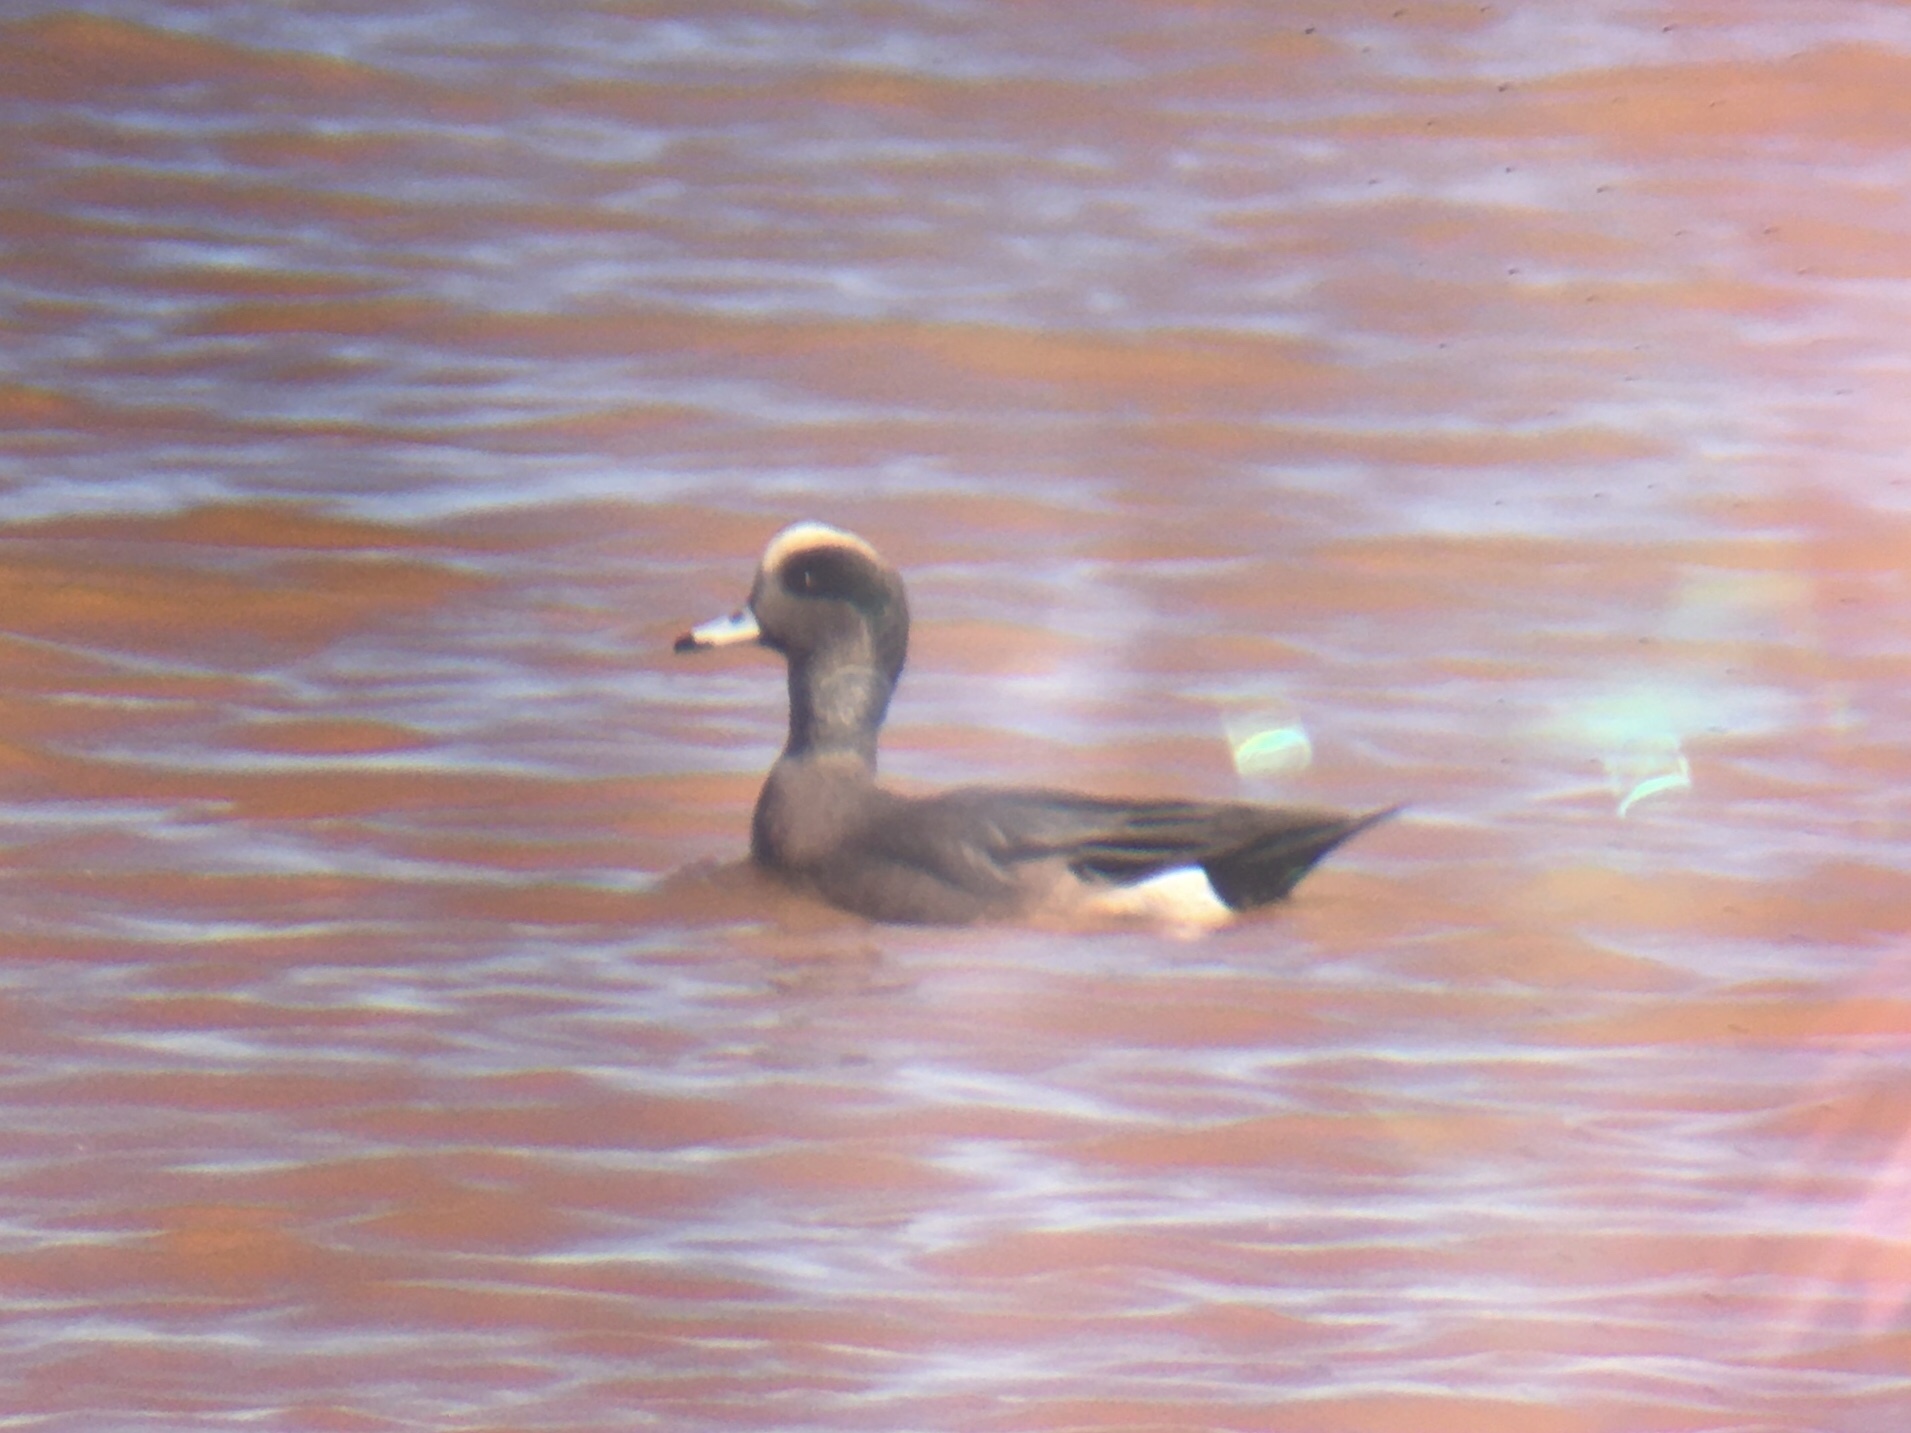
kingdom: Animalia
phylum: Chordata
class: Aves
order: Anseriformes
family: Anatidae
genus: Mareca
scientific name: Mareca americana
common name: American wigeon
